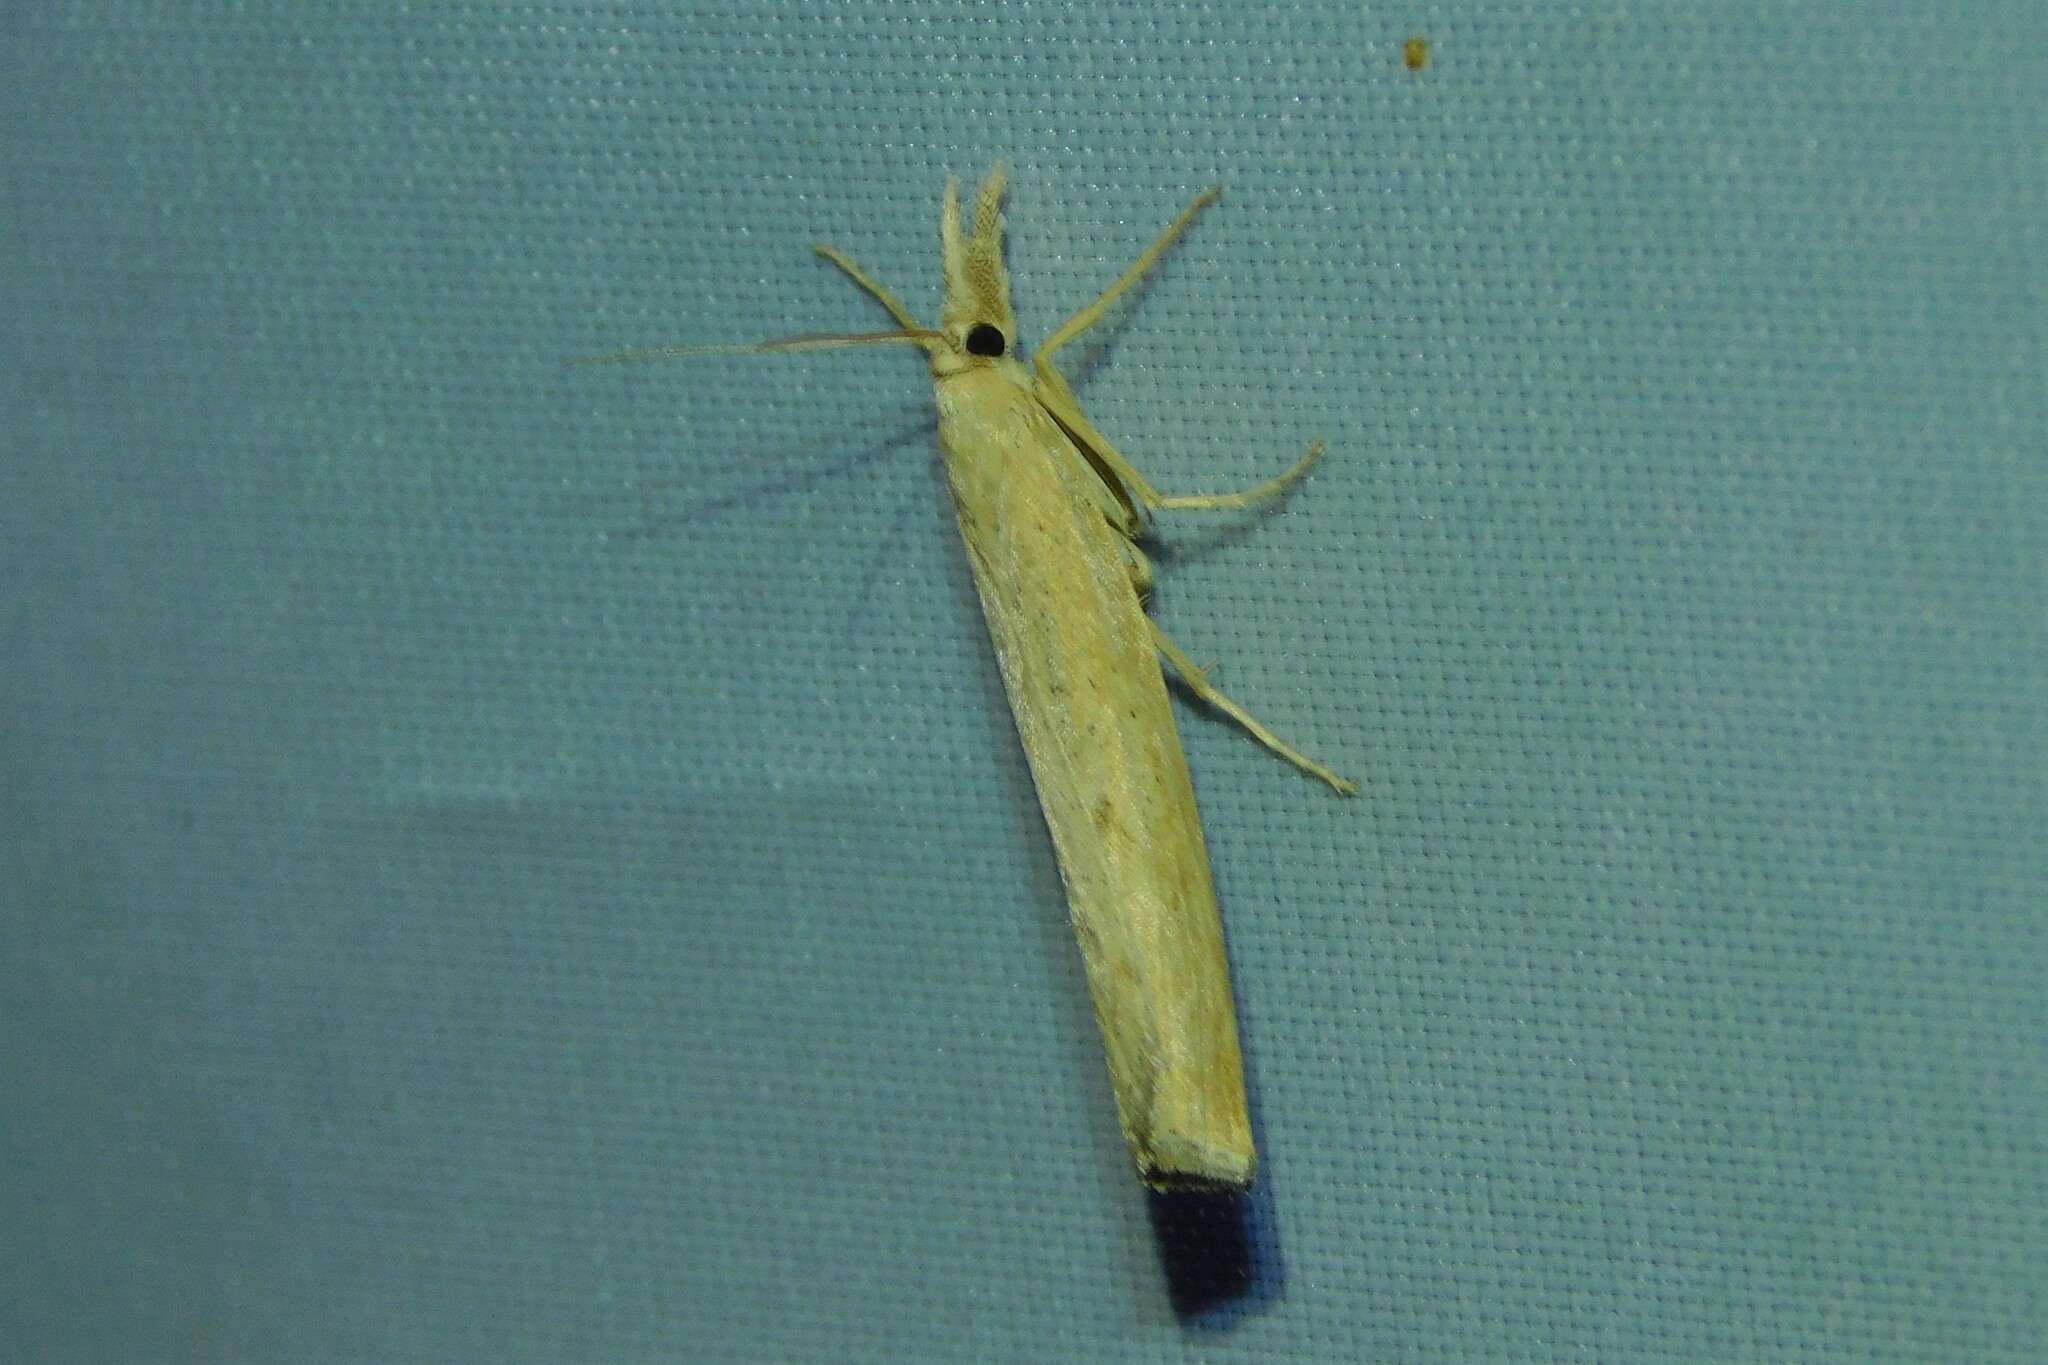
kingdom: Animalia
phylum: Arthropoda
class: Insecta
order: Lepidoptera
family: Crambidae
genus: Pediasia
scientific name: Pediasia contaminella
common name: Waste grass-veneer
